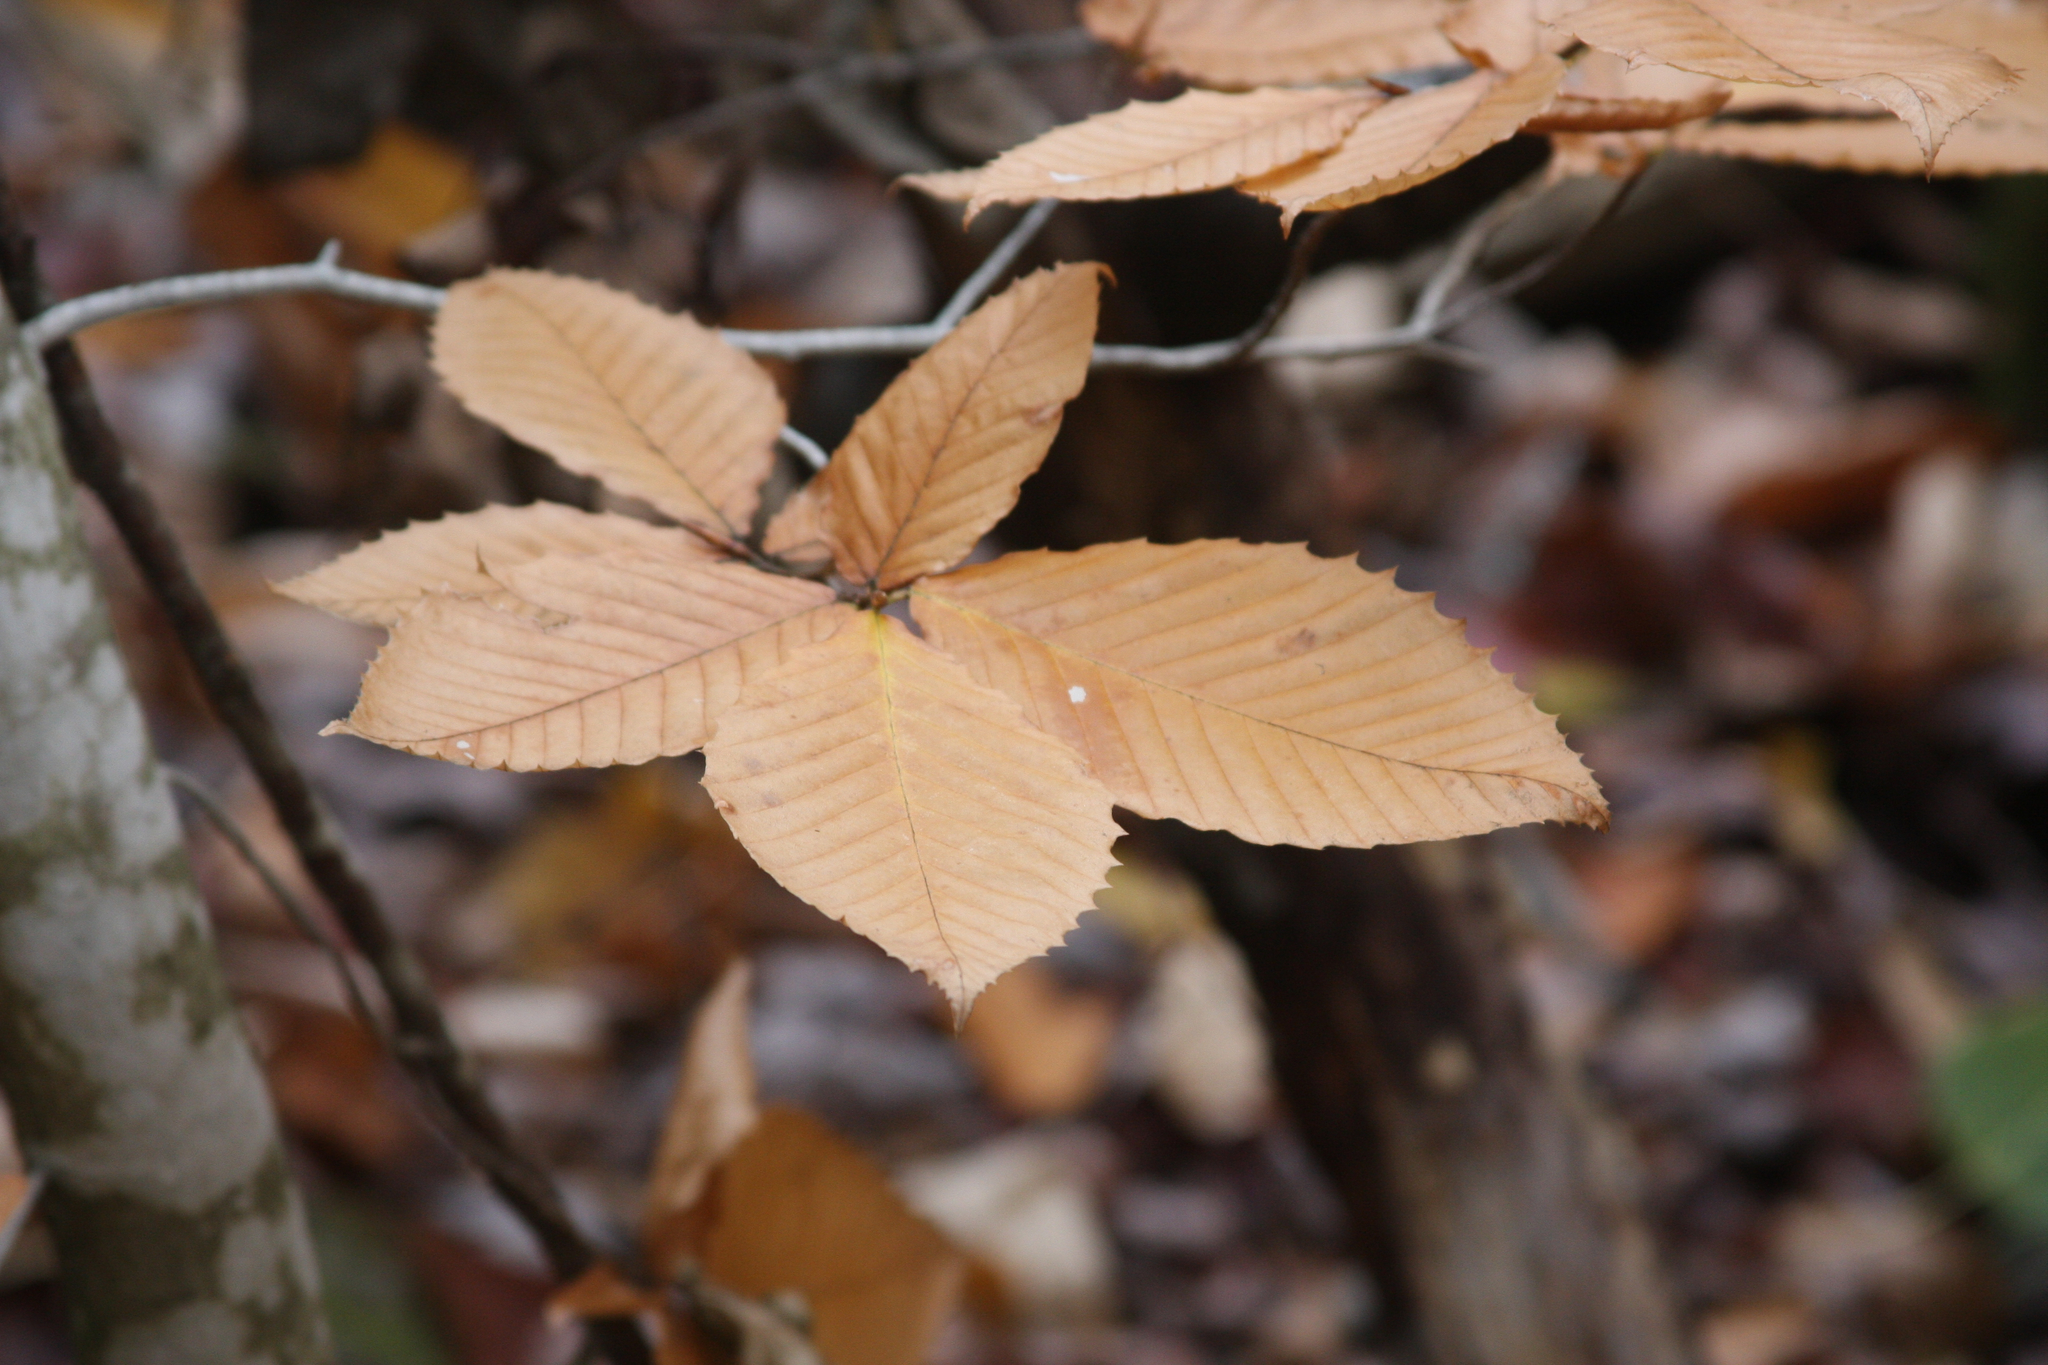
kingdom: Plantae
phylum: Tracheophyta
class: Magnoliopsida
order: Fagales
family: Fagaceae
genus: Fagus
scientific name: Fagus grandifolia
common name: American beech
